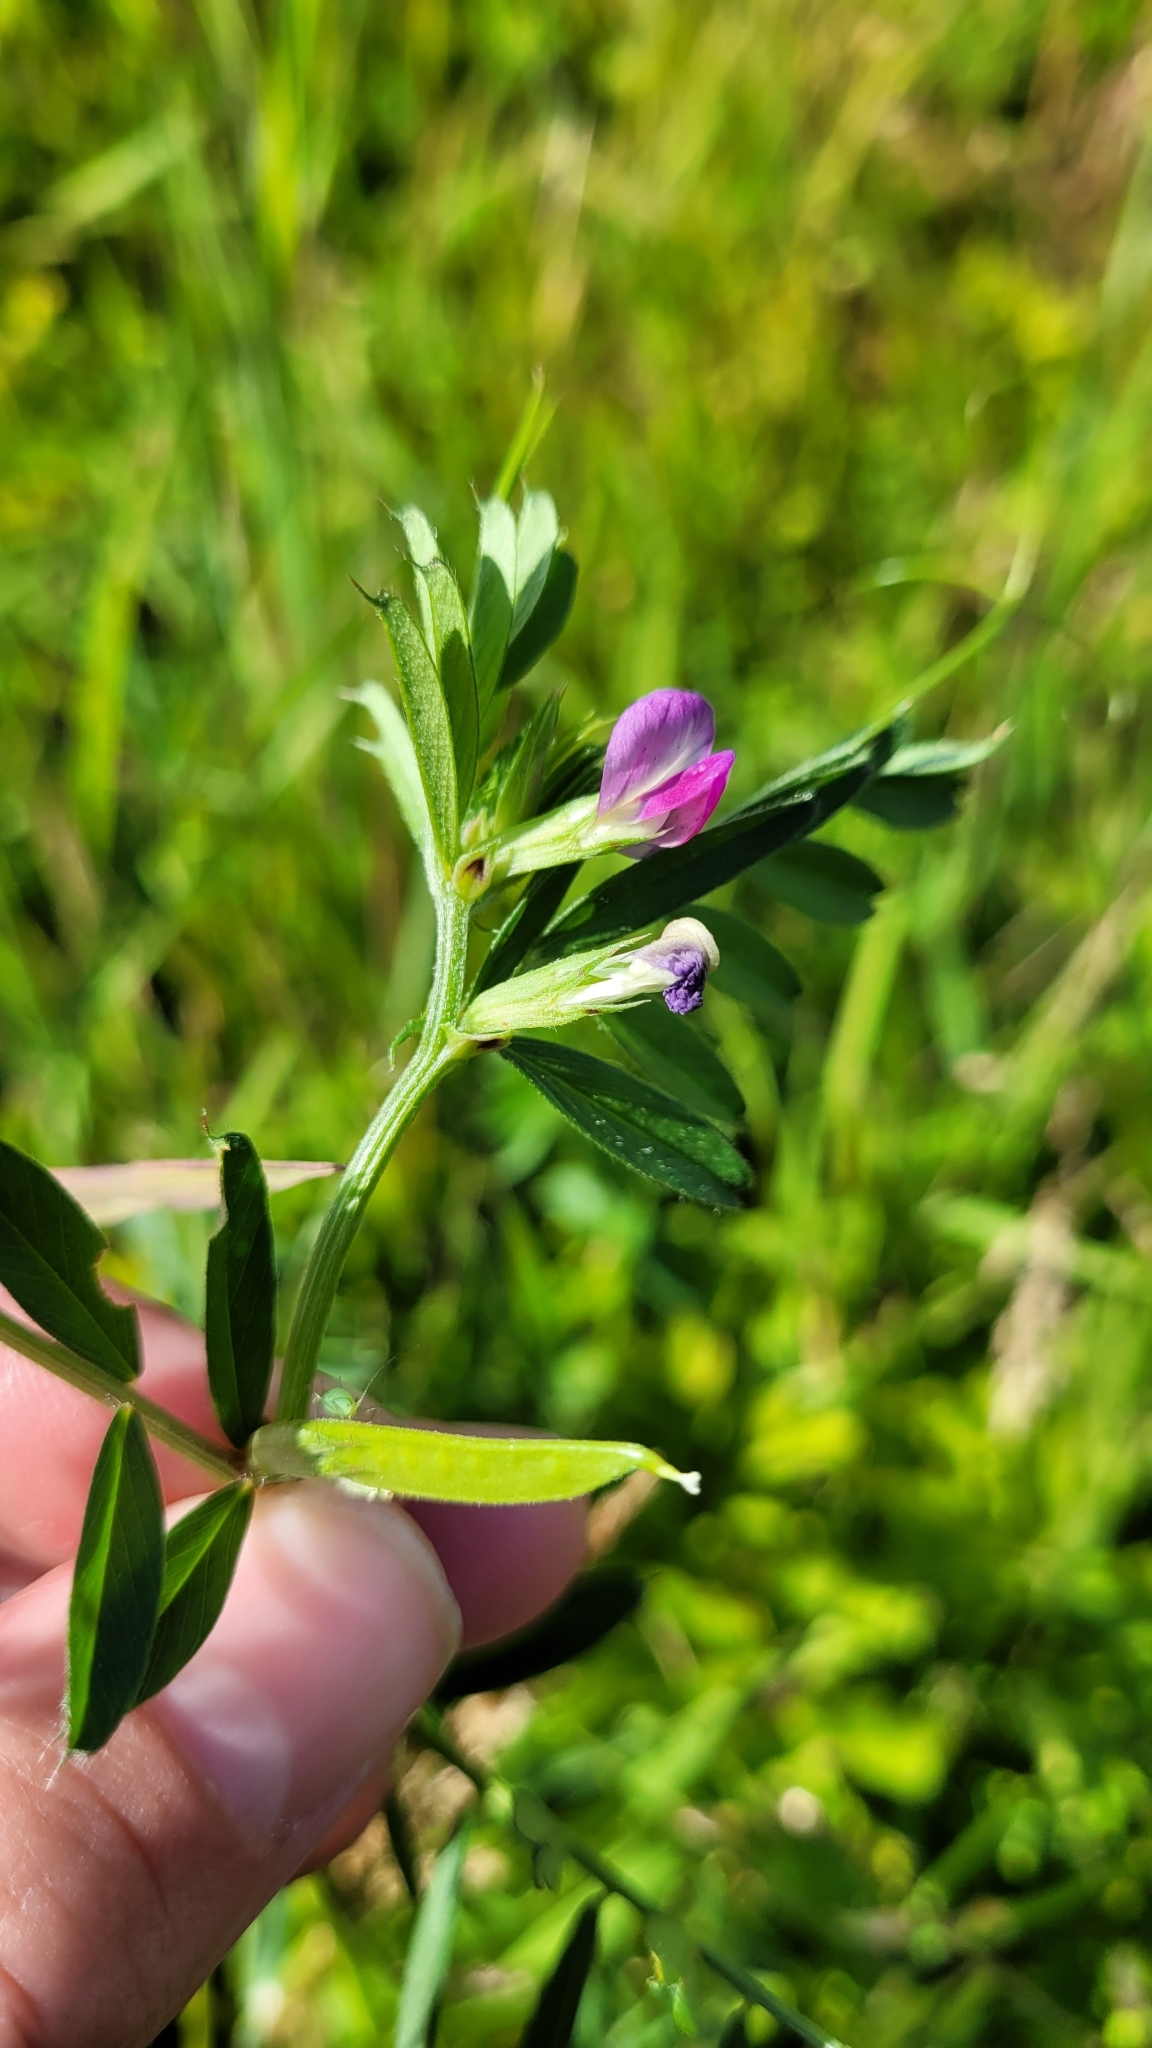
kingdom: Plantae
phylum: Tracheophyta
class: Magnoliopsida
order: Fabales
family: Fabaceae
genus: Vicia
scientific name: Vicia sativa
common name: Garden vetch
